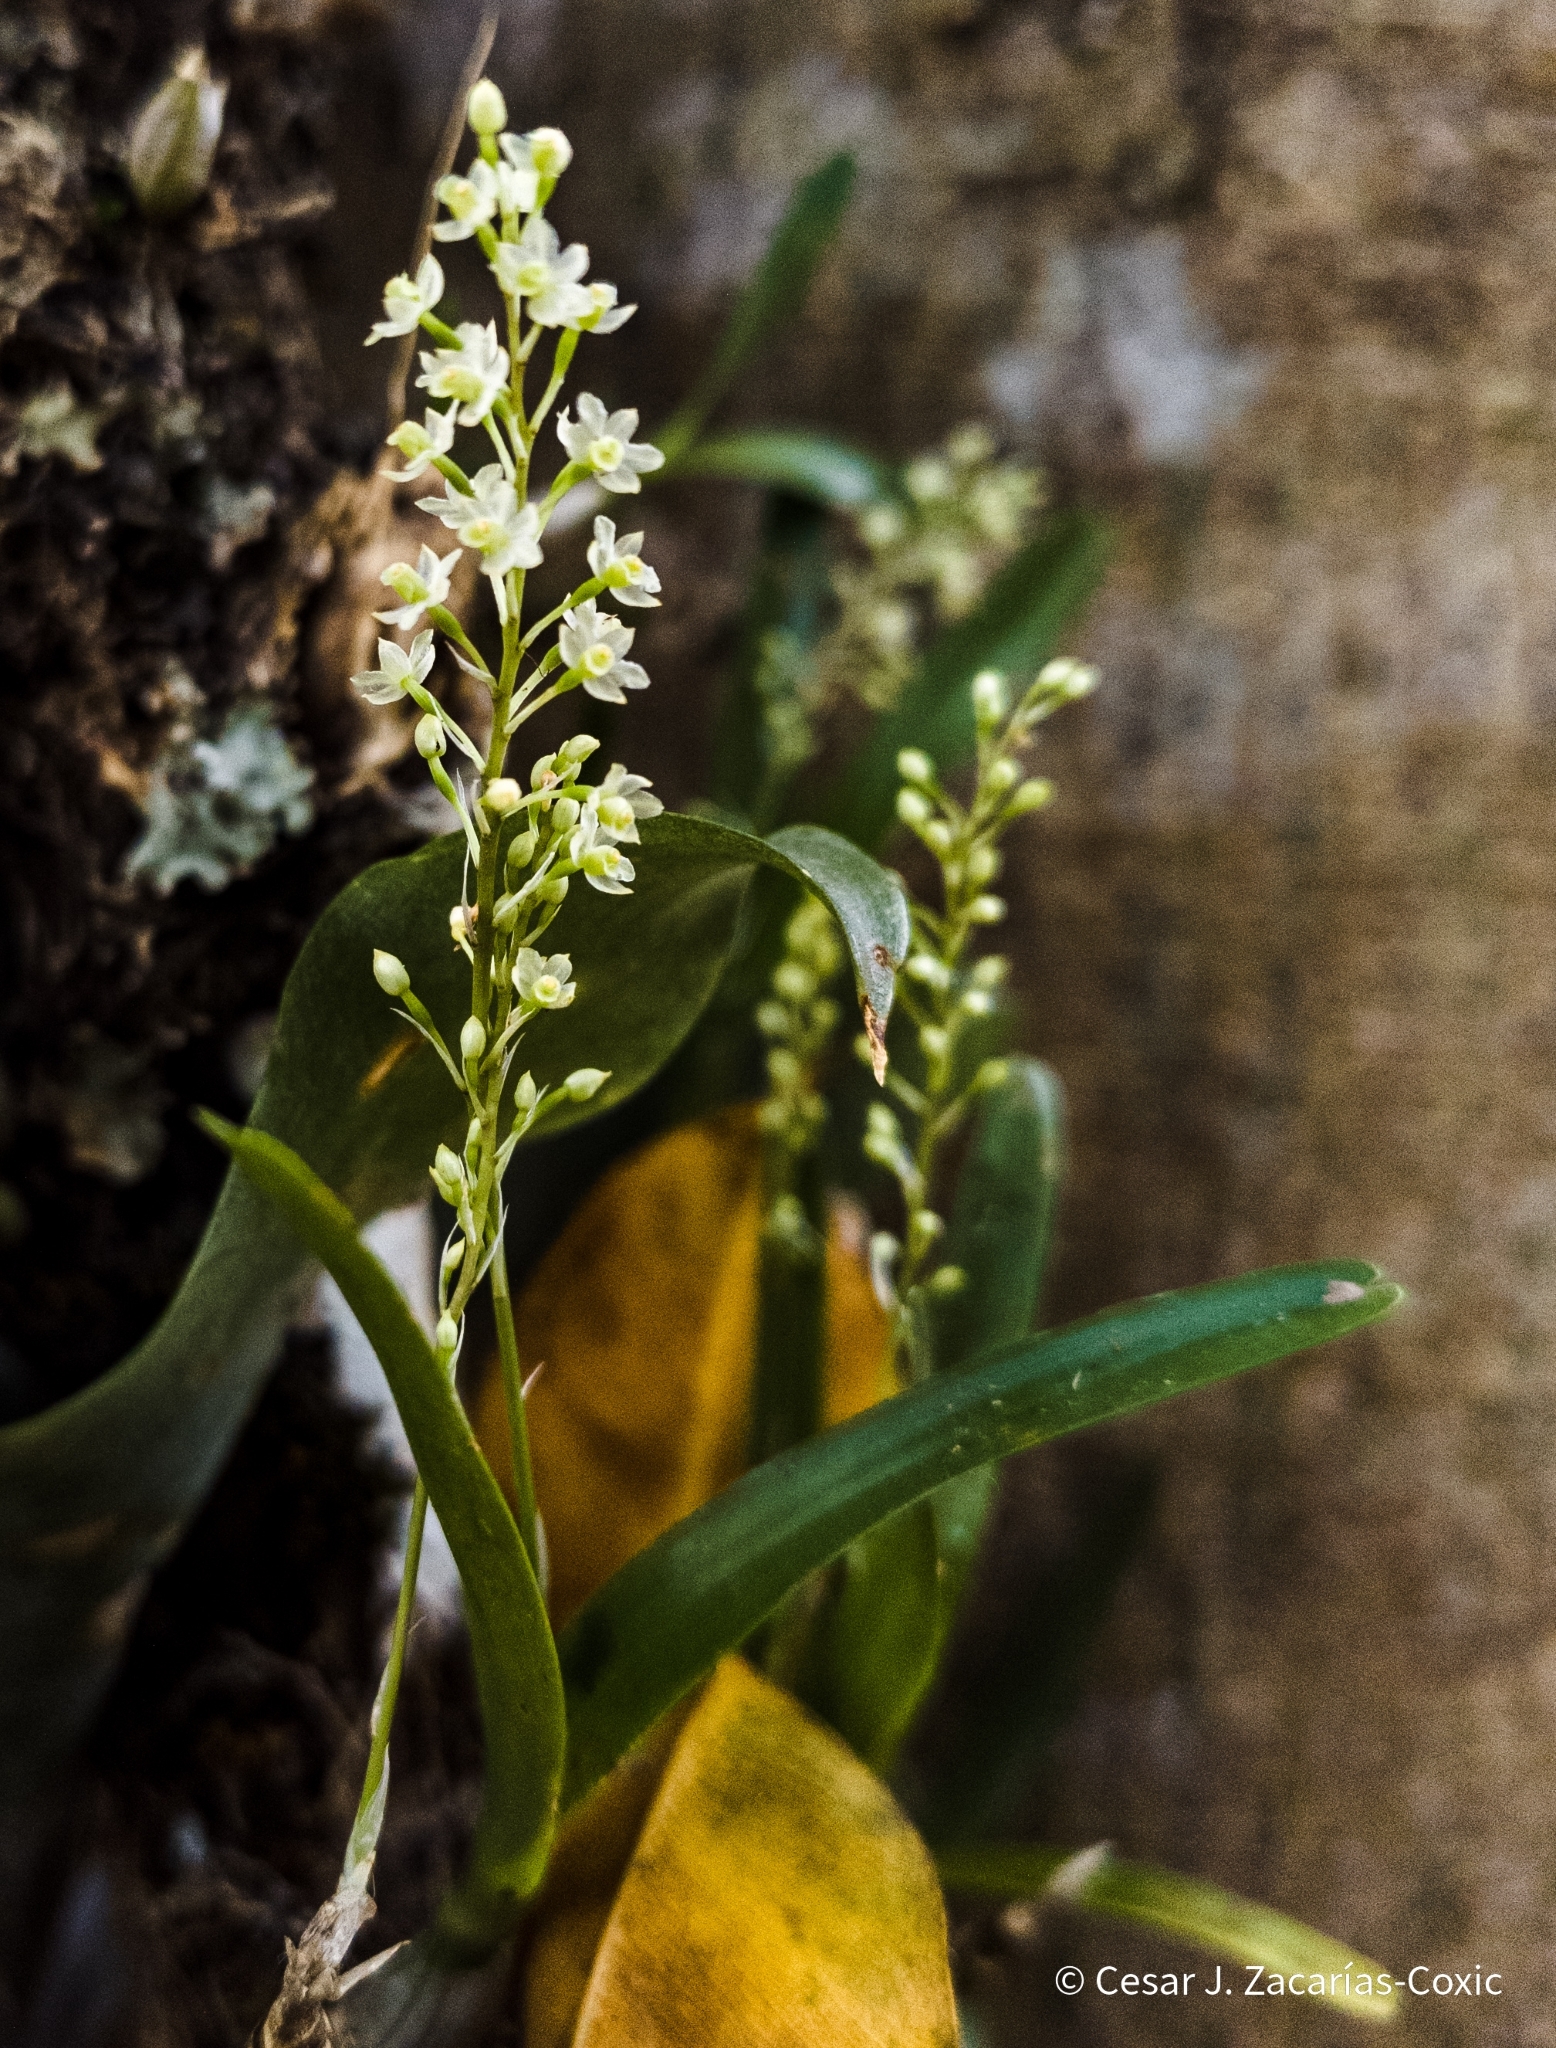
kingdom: Plantae
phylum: Tracheophyta
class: Liliopsida
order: Asparagales
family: Orchidaceae
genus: Scaphyglottis
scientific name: Scaphyglottis micrantha
